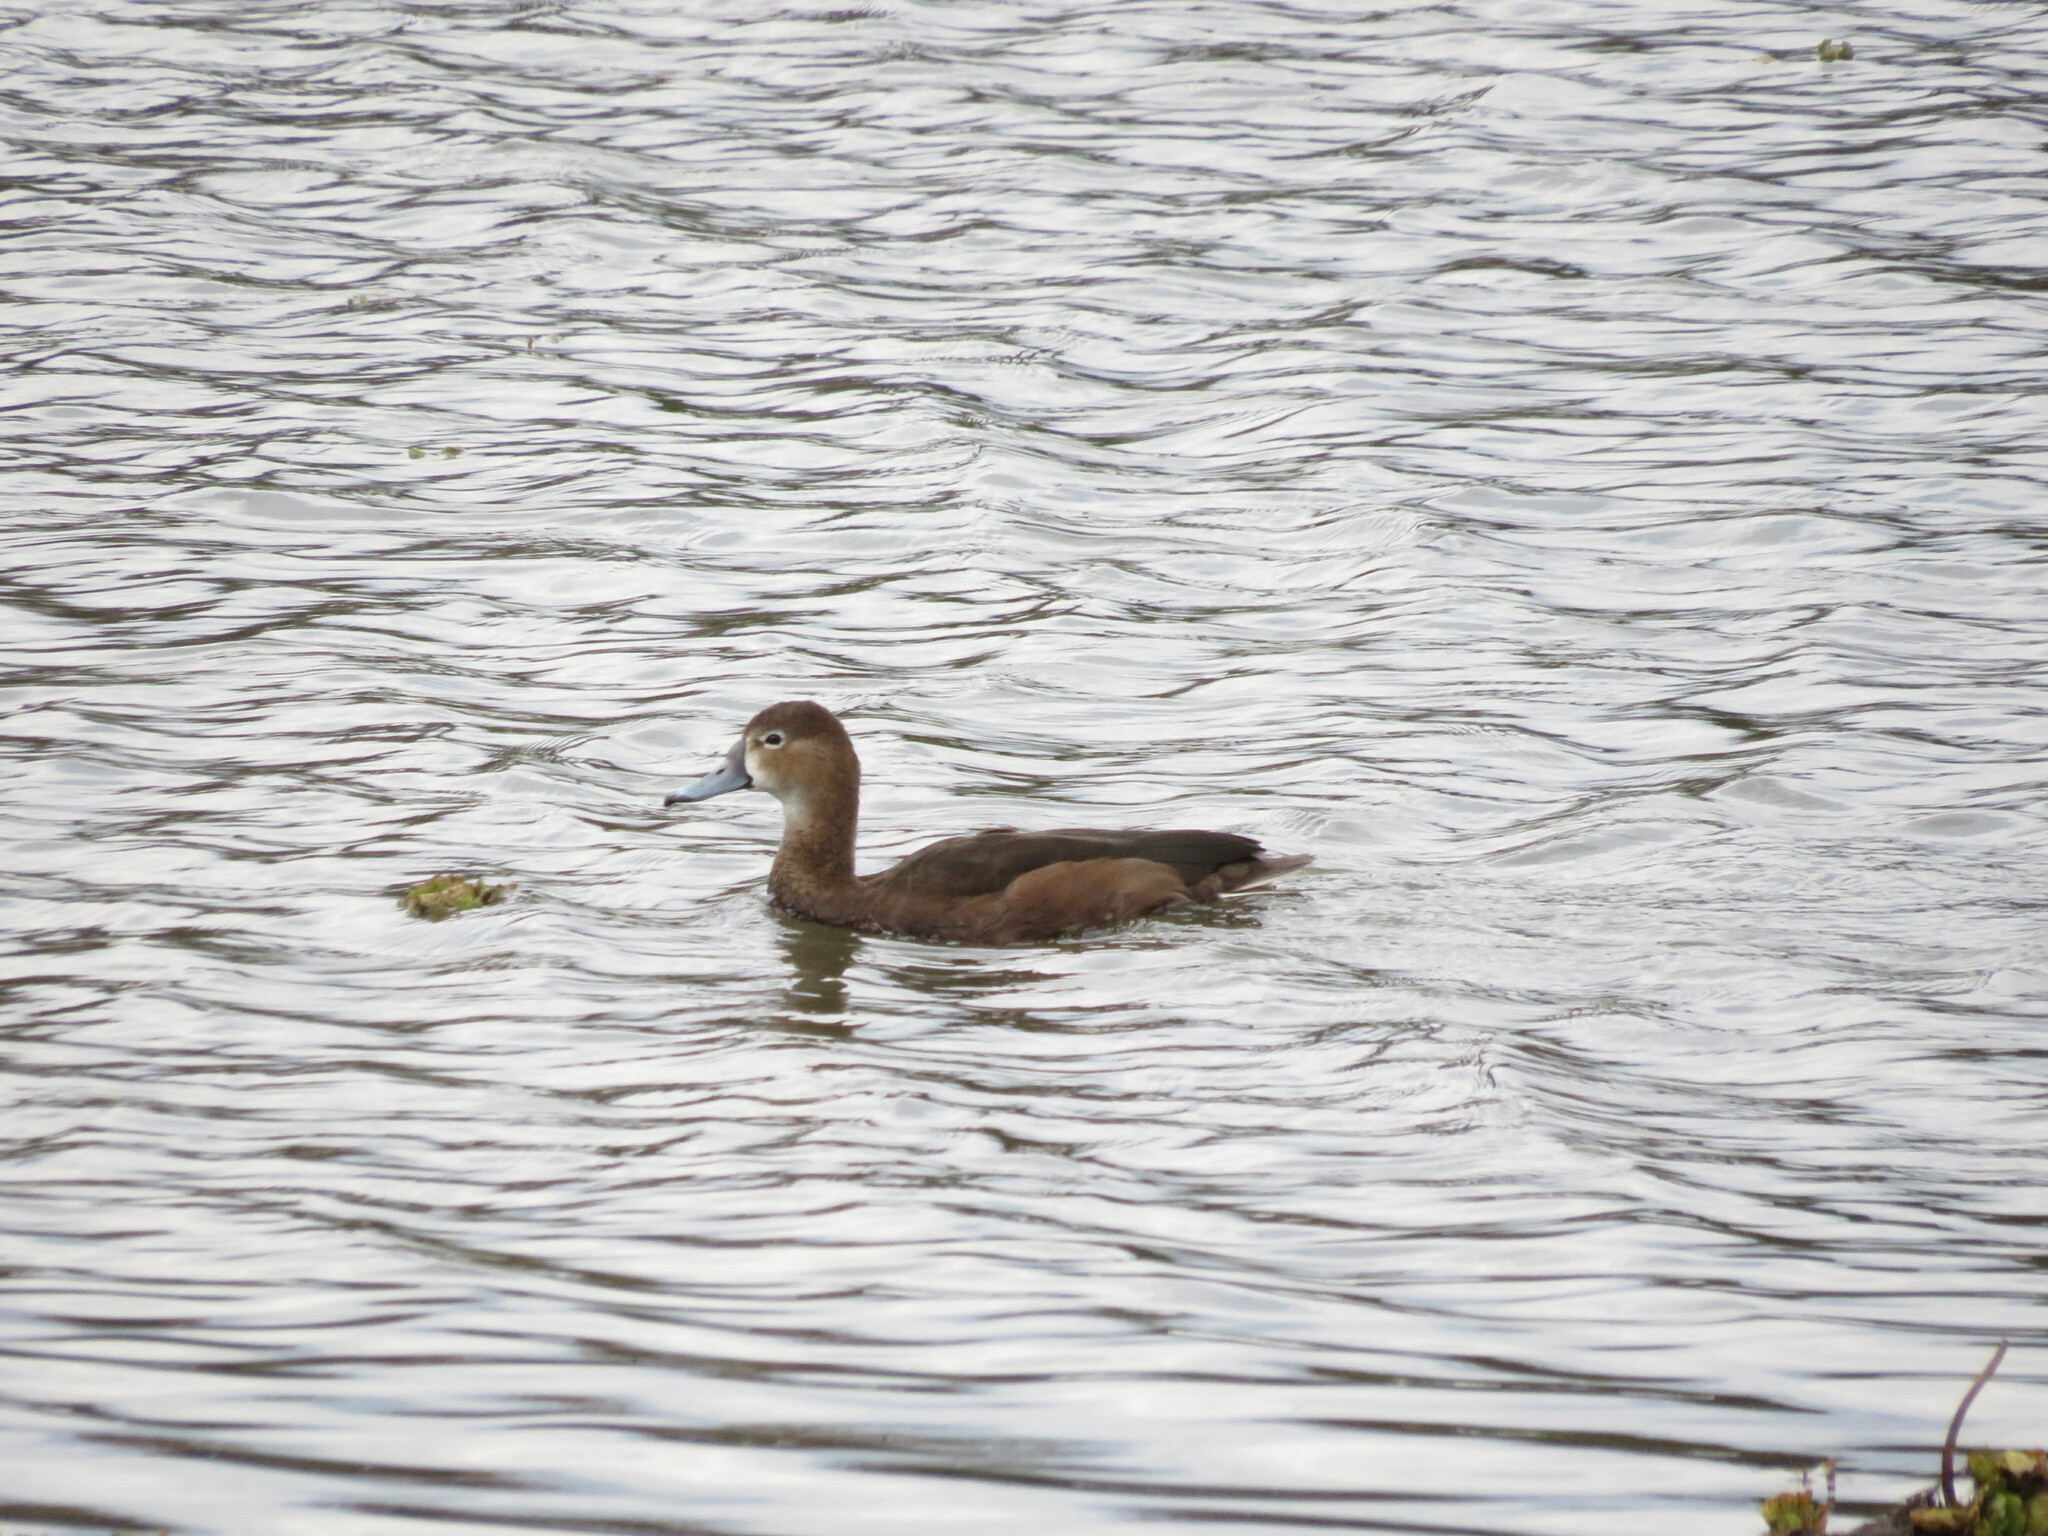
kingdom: Animalia
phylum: Chordata
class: Aves
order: Anseriformes
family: Anatidae
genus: Netta
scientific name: Netta peposaca
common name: Rosy-billed pochard
